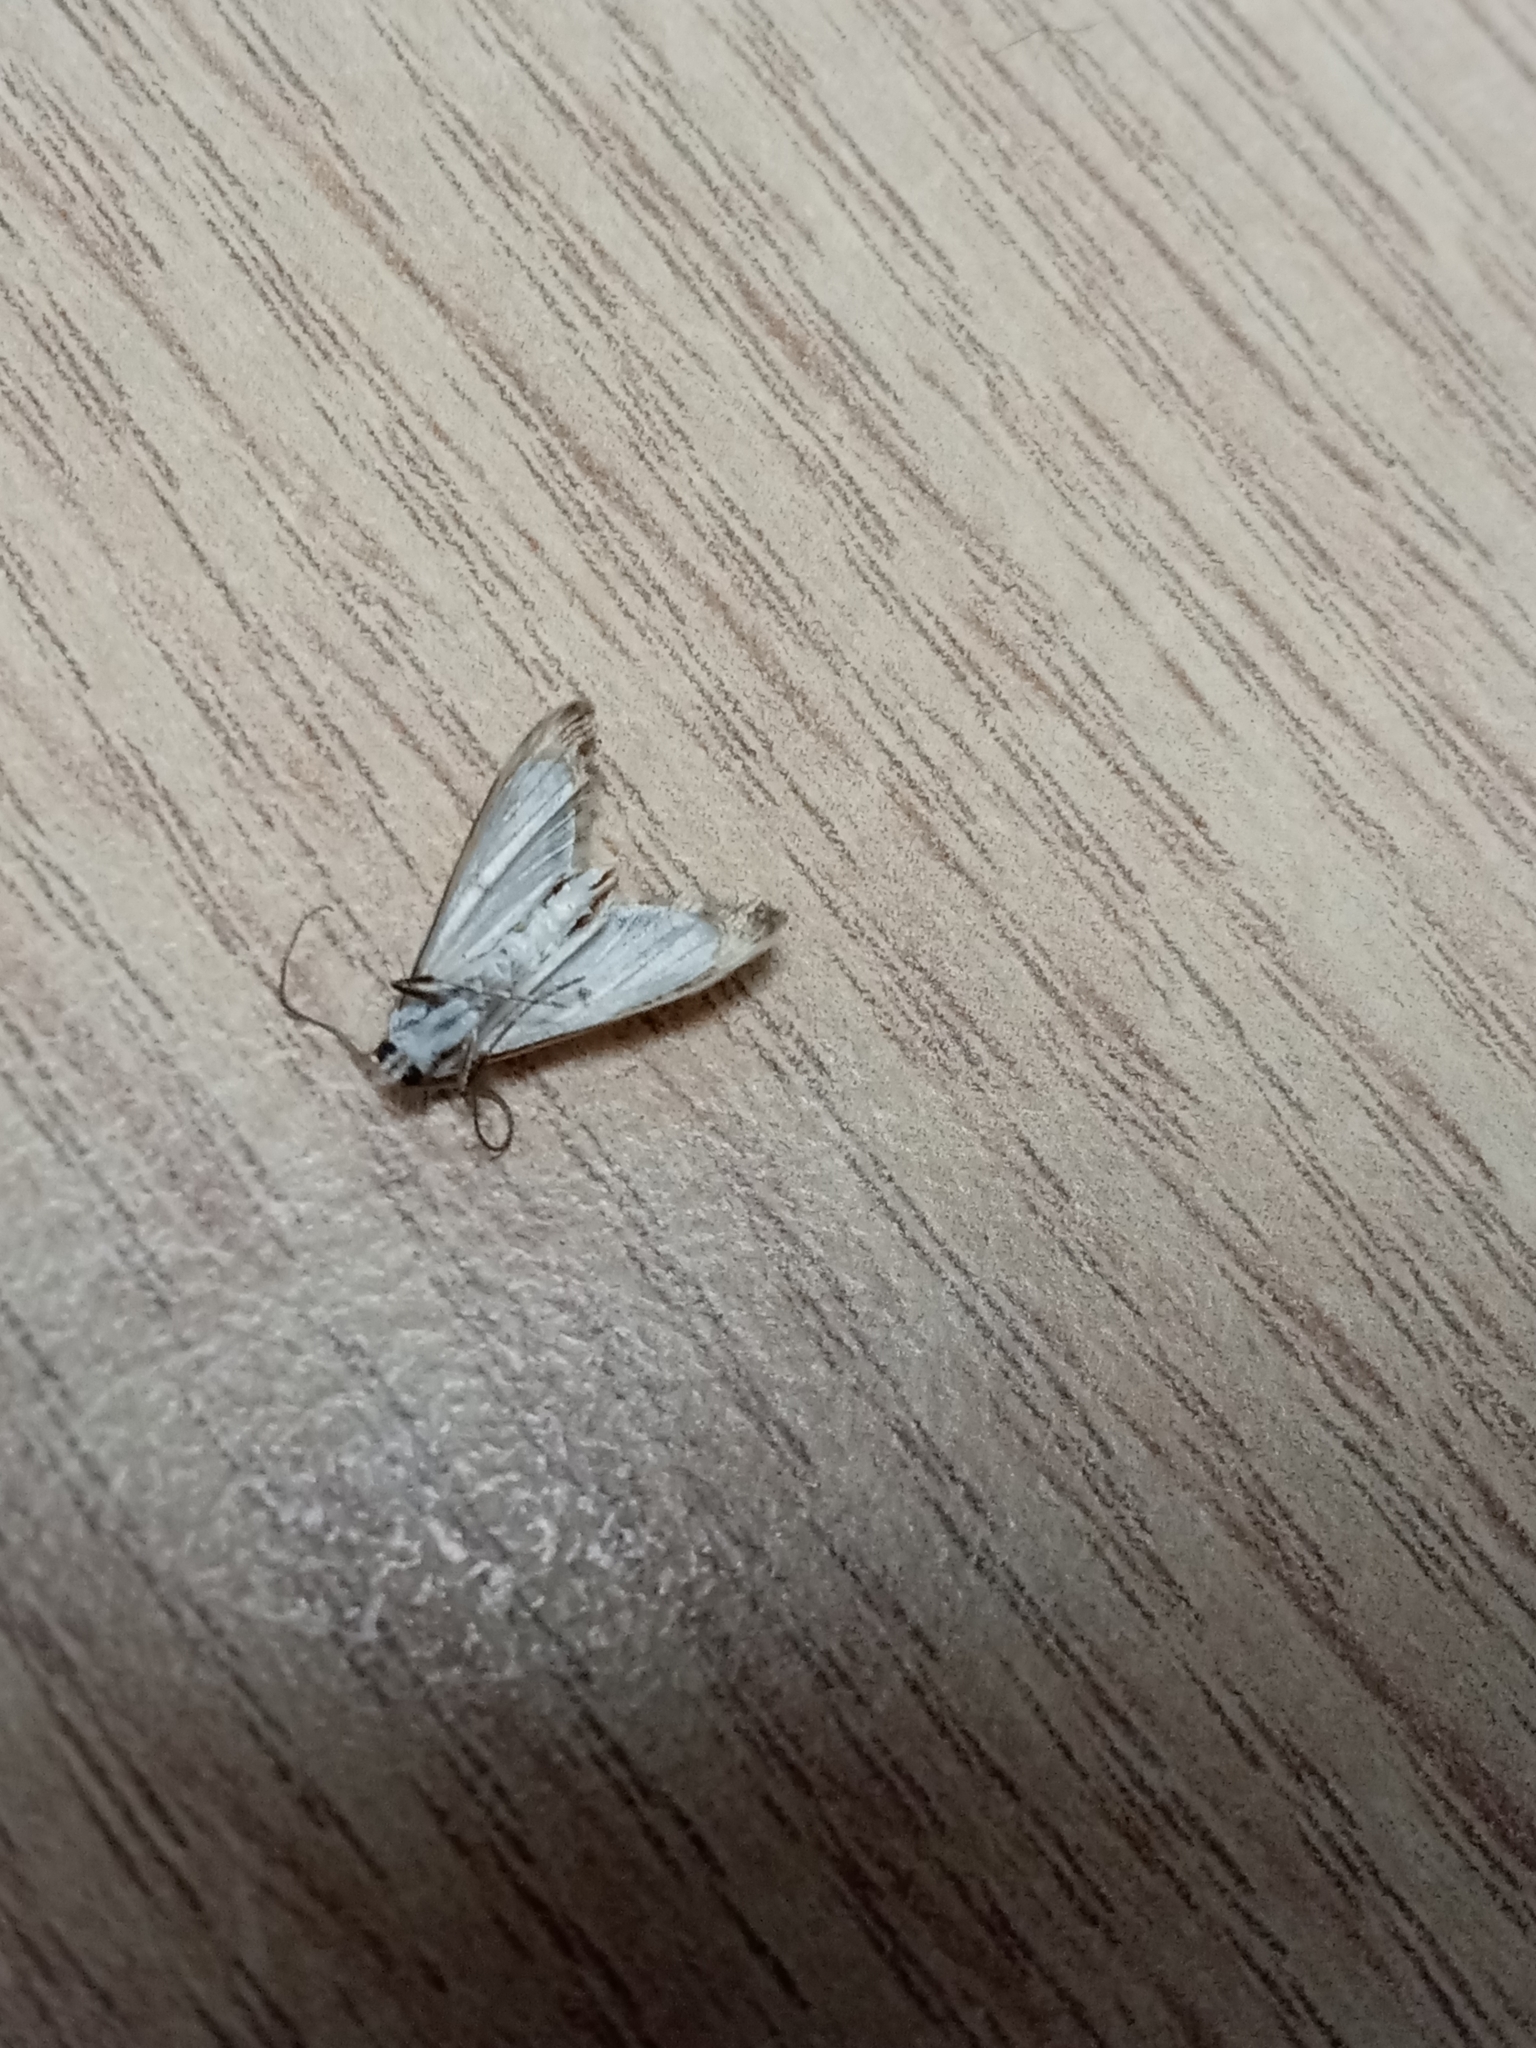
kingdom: Animalia
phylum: Arthropoda
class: Insecta
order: Lepidoptera
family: Crambidae
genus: Cataclysta
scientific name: Cataclysta lemnata
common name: Small china-mark
